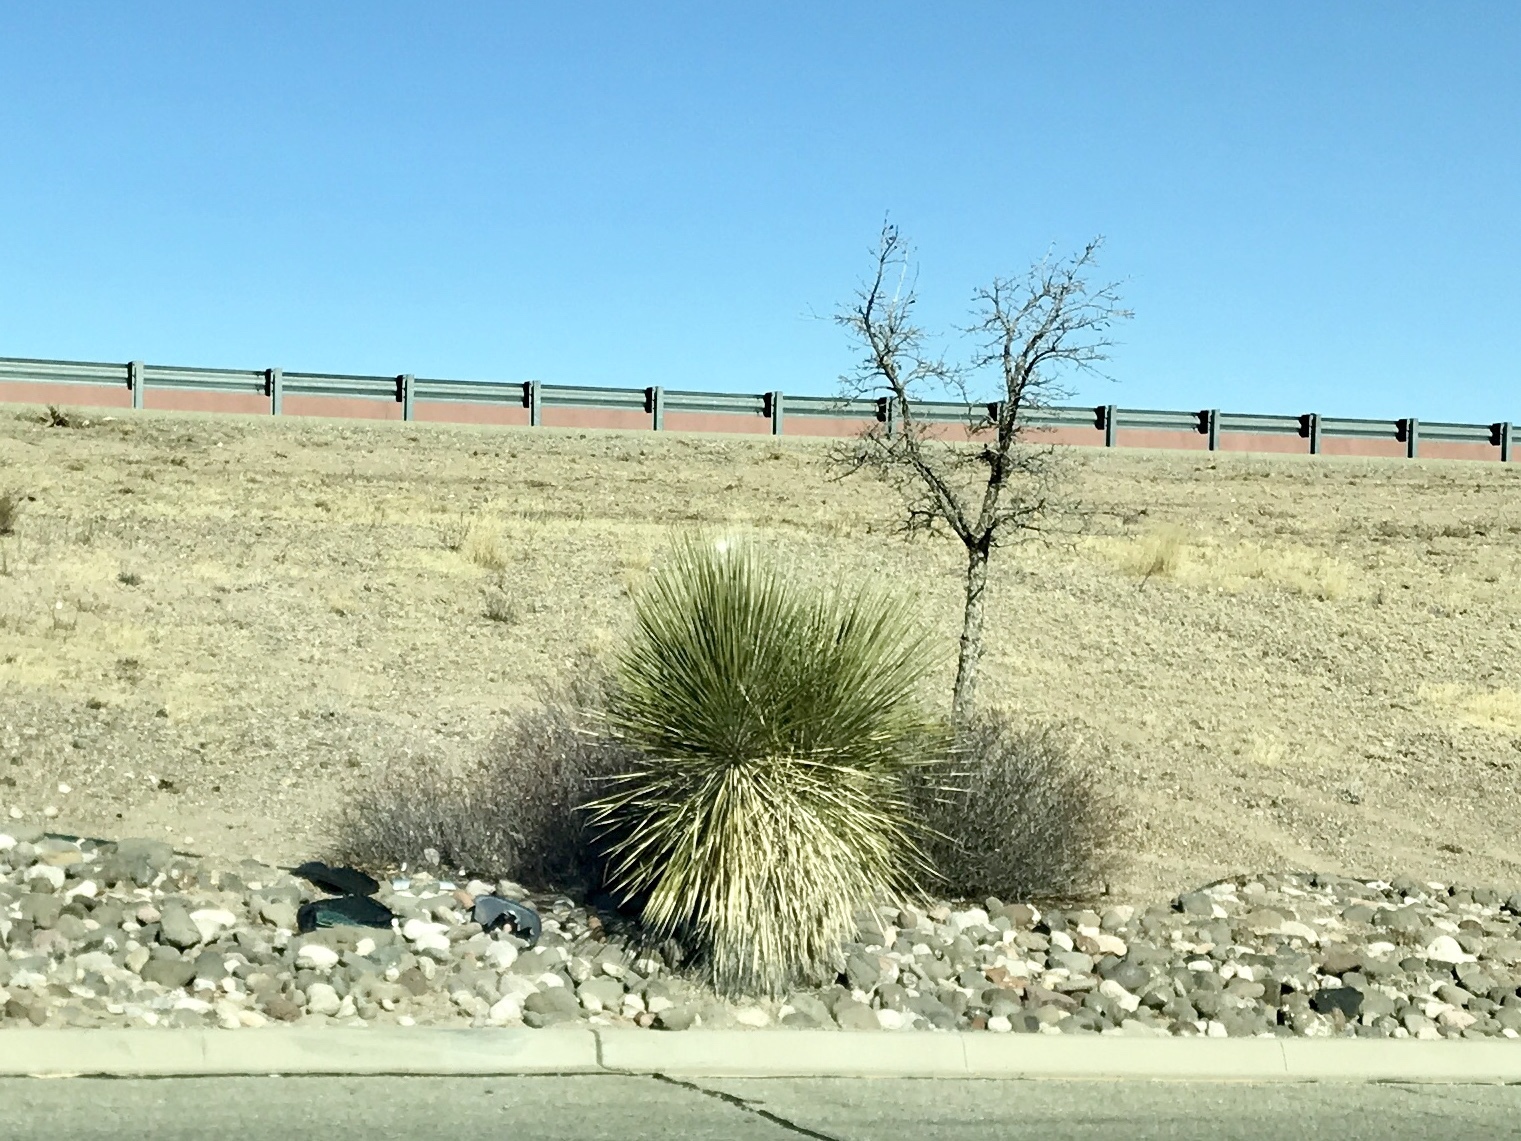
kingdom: Plantae
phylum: Tracheophyta
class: Liliopsida
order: Asparagales
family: Asparagaceae
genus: Yucca
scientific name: Yucca elata
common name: Palmella
